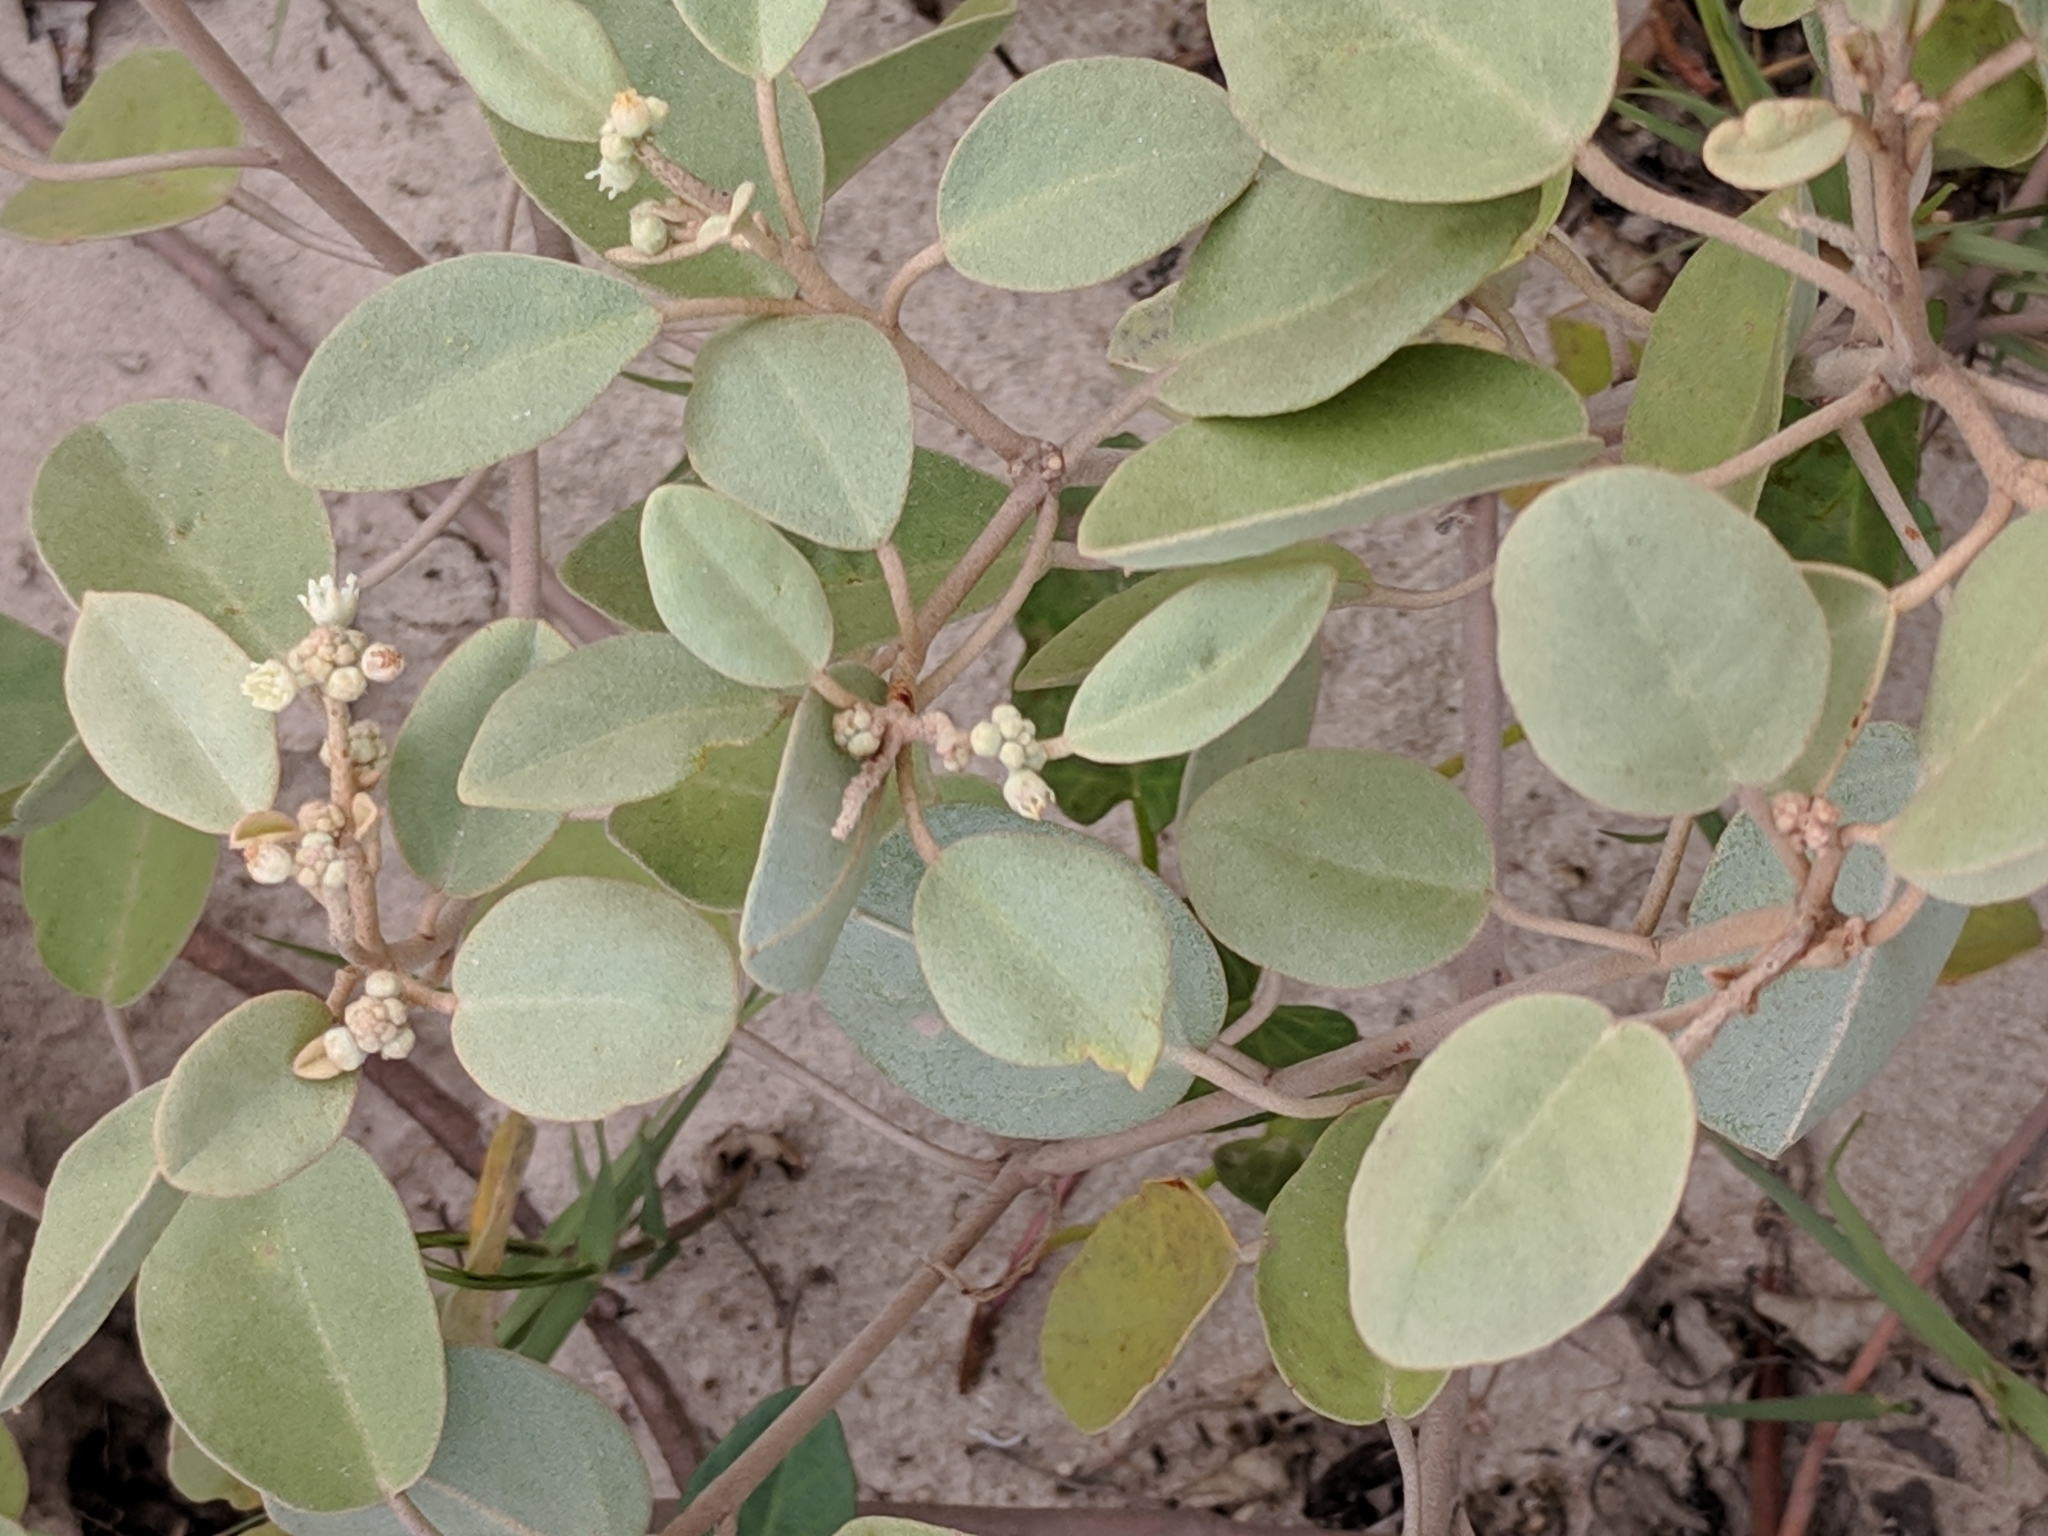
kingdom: Plantae
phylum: Tracheophyta
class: Magnoliopsida
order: Malpighiales
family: Euphorbiaceae
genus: Croton
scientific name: Croton punctatus
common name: Beach-tea
